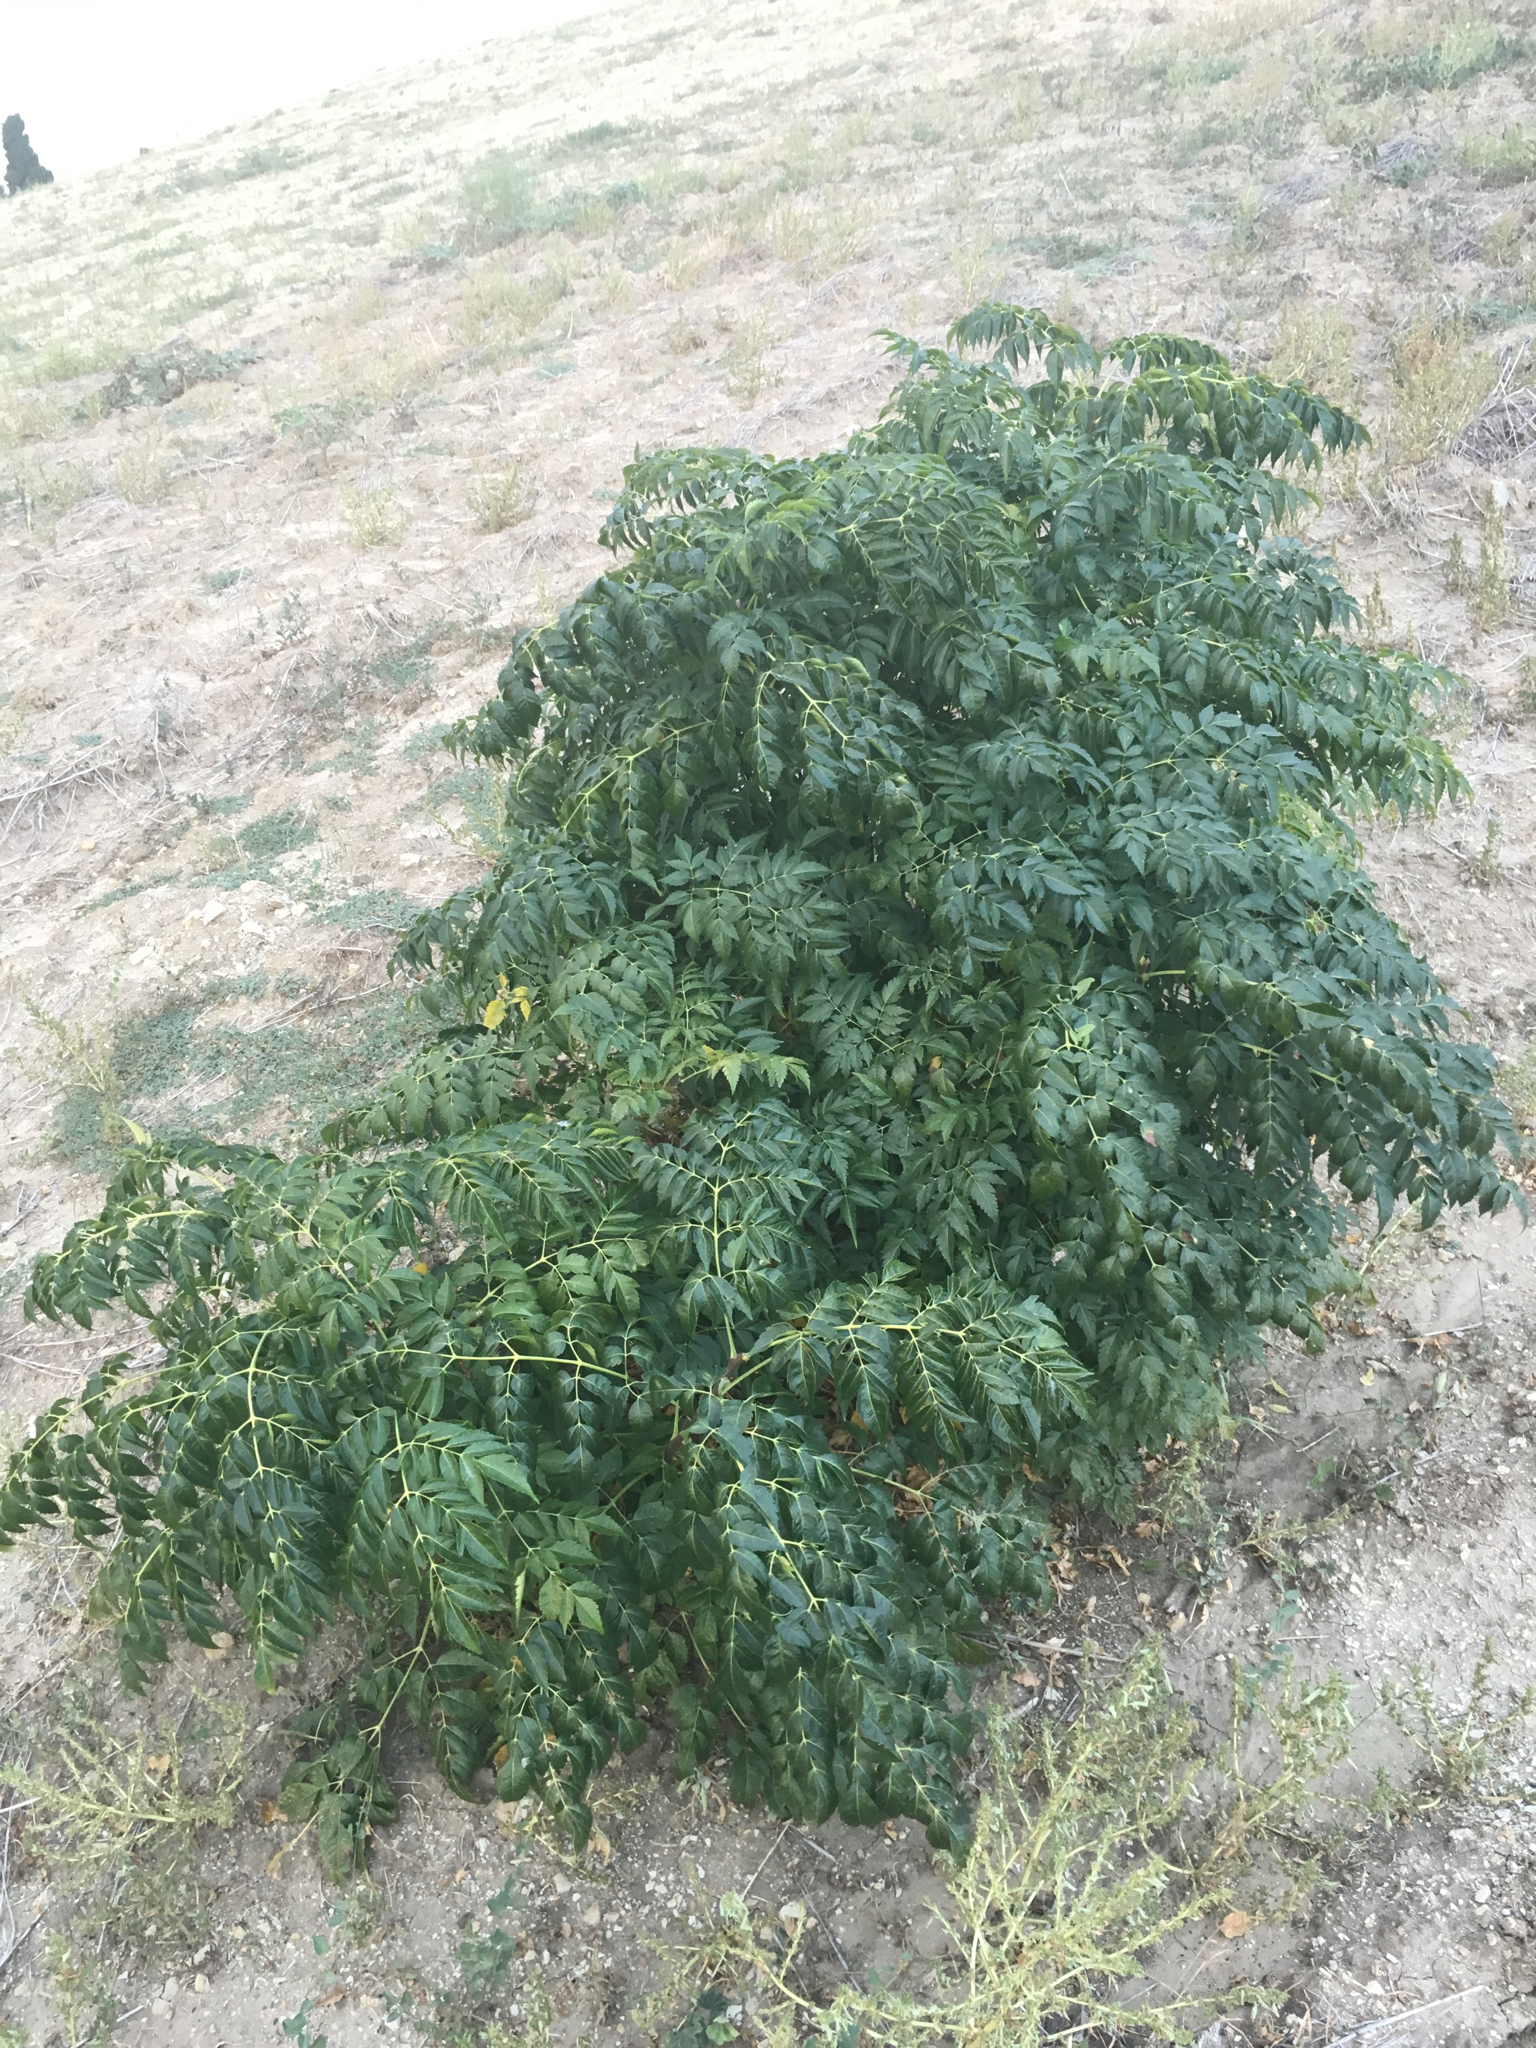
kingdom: Plantae
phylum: Tracheophyta
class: Magnoliopsida
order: Sapindales
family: Meliaceae
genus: Melia
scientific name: Melia azedarach
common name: Chinaberrytree
